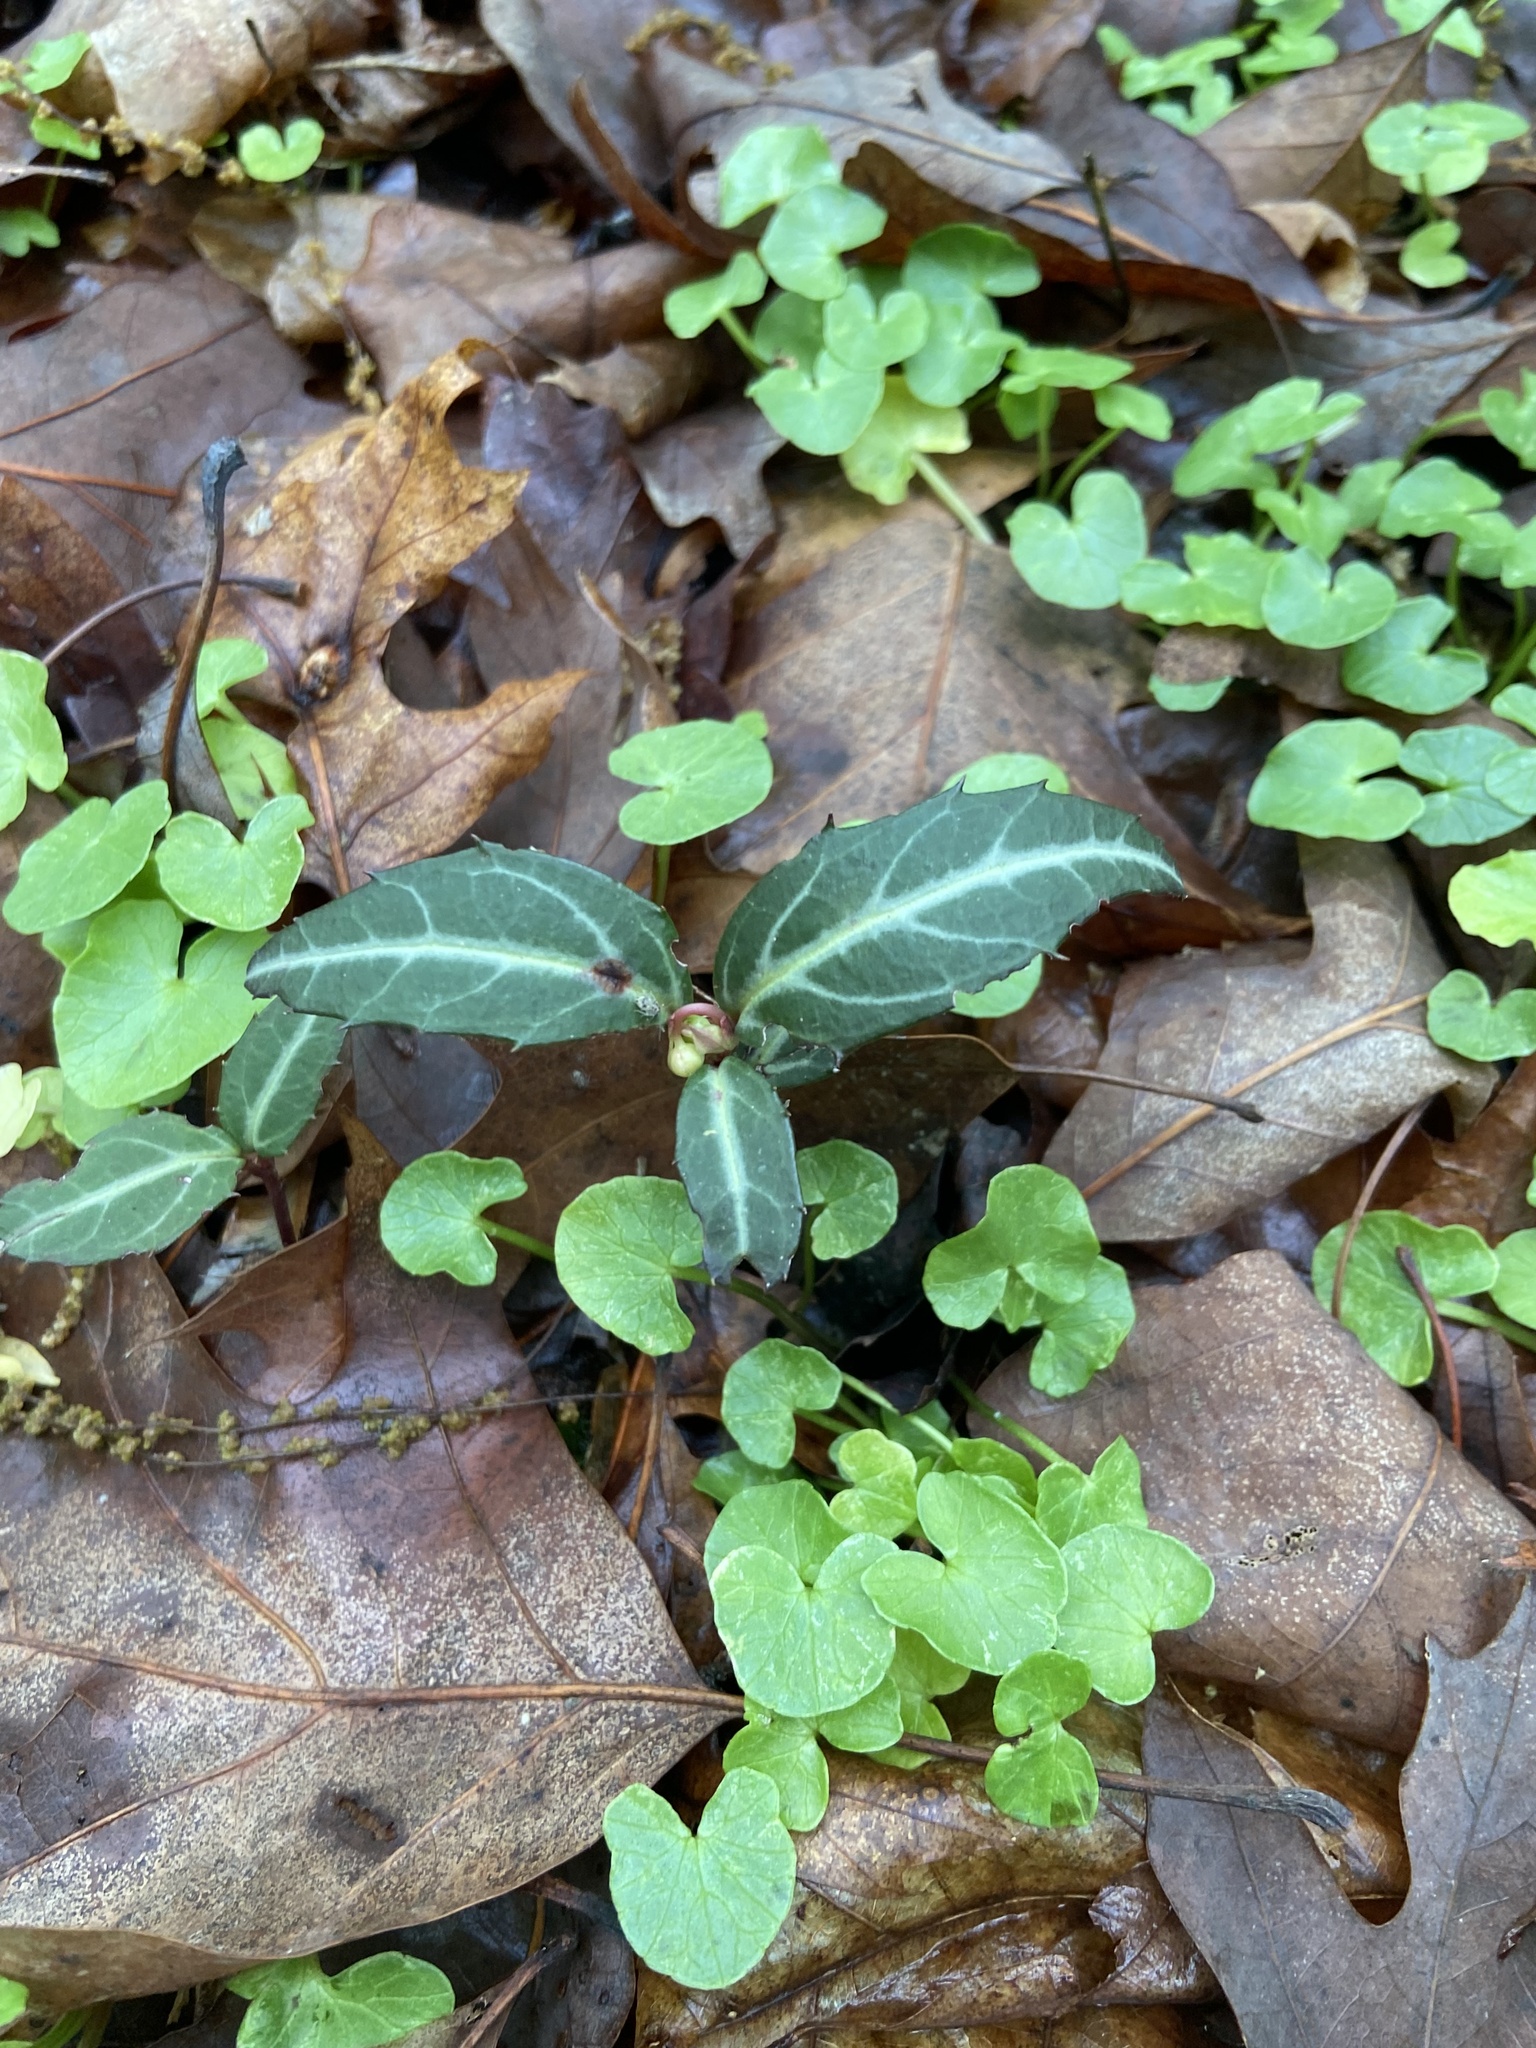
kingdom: Plantae
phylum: Tracheophyta
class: Magnoliopsida
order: Ericales
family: Ericaceae
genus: Chimaphila
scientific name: Chimaphila maculata
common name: Spotted pipsissewa
